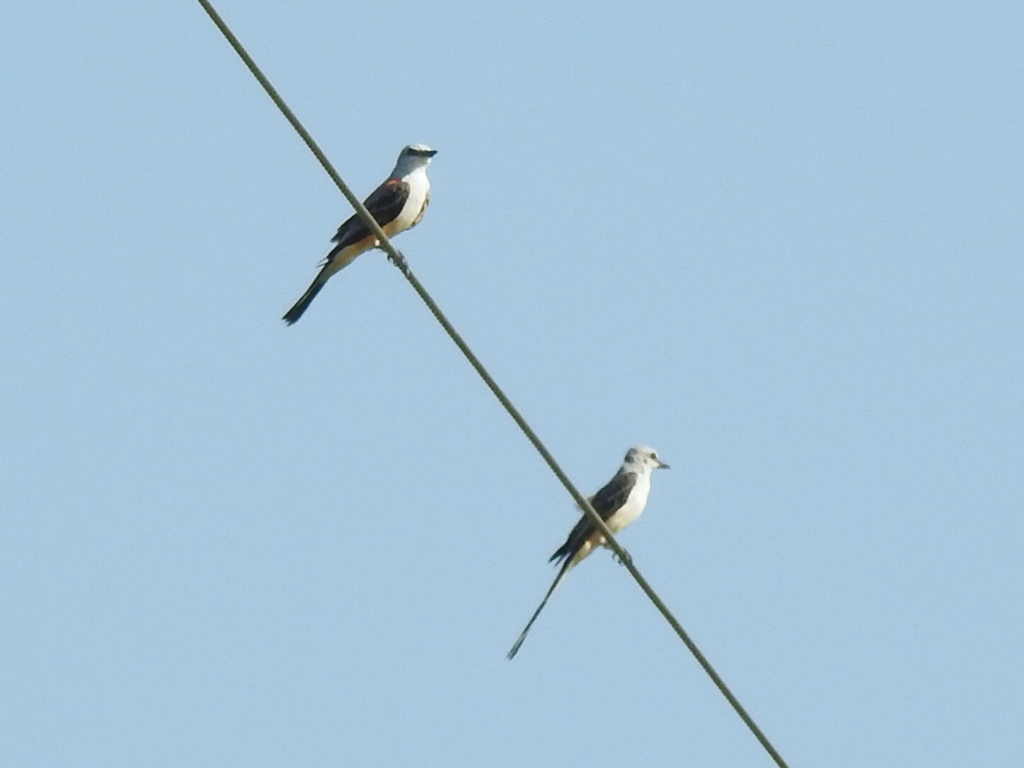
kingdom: Animalia
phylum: Chordata
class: Aves
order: Passeriformes
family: Tyrannidae
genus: Tyrannus
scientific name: Tyrannus forficatus
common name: Scissor-tailed flycatcher
